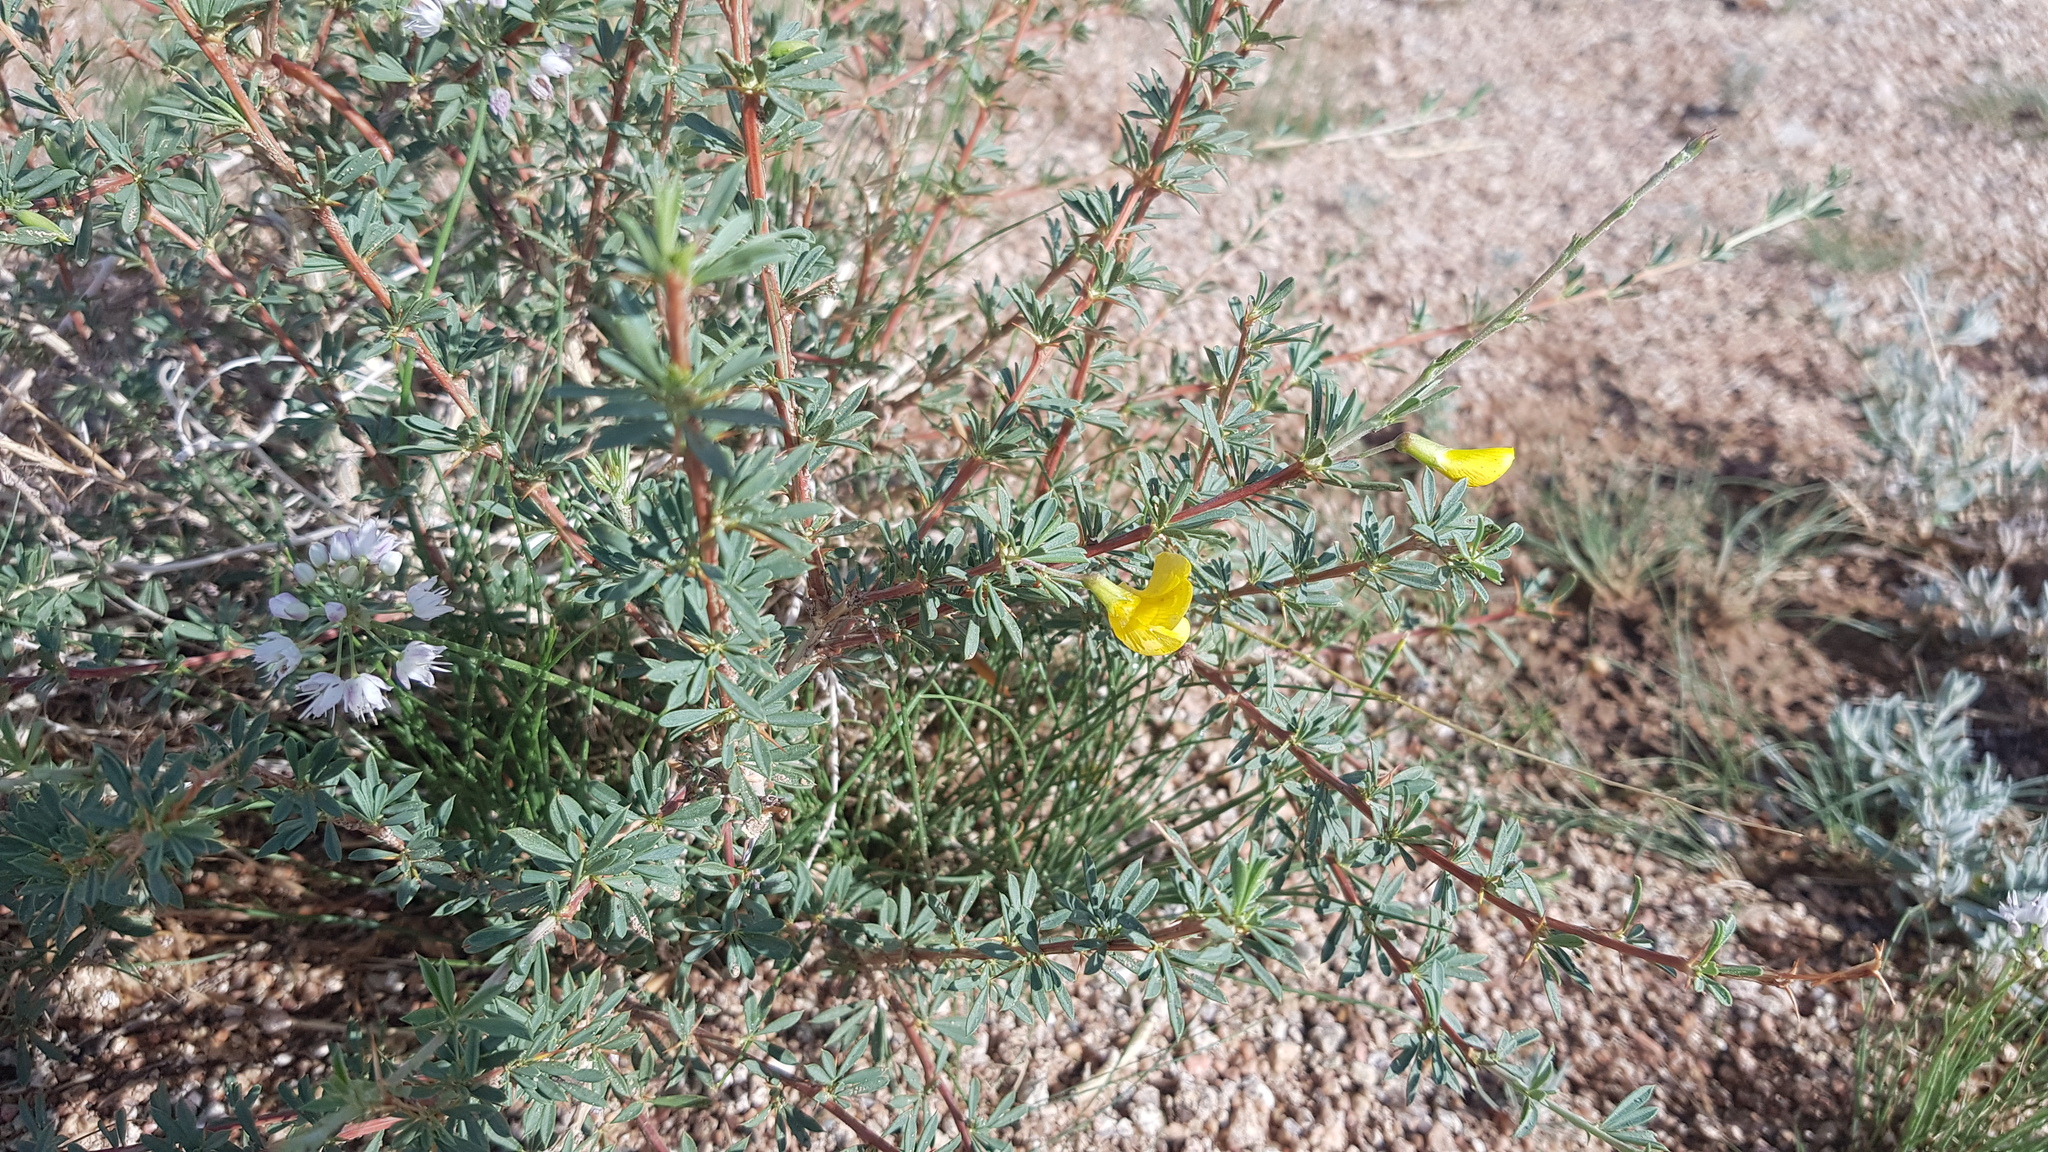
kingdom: Plantae
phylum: Tracheophyta
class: Magnoliopsida
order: Fabales
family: Fabaceae
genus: Caragana
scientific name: Caragana pygmaea
